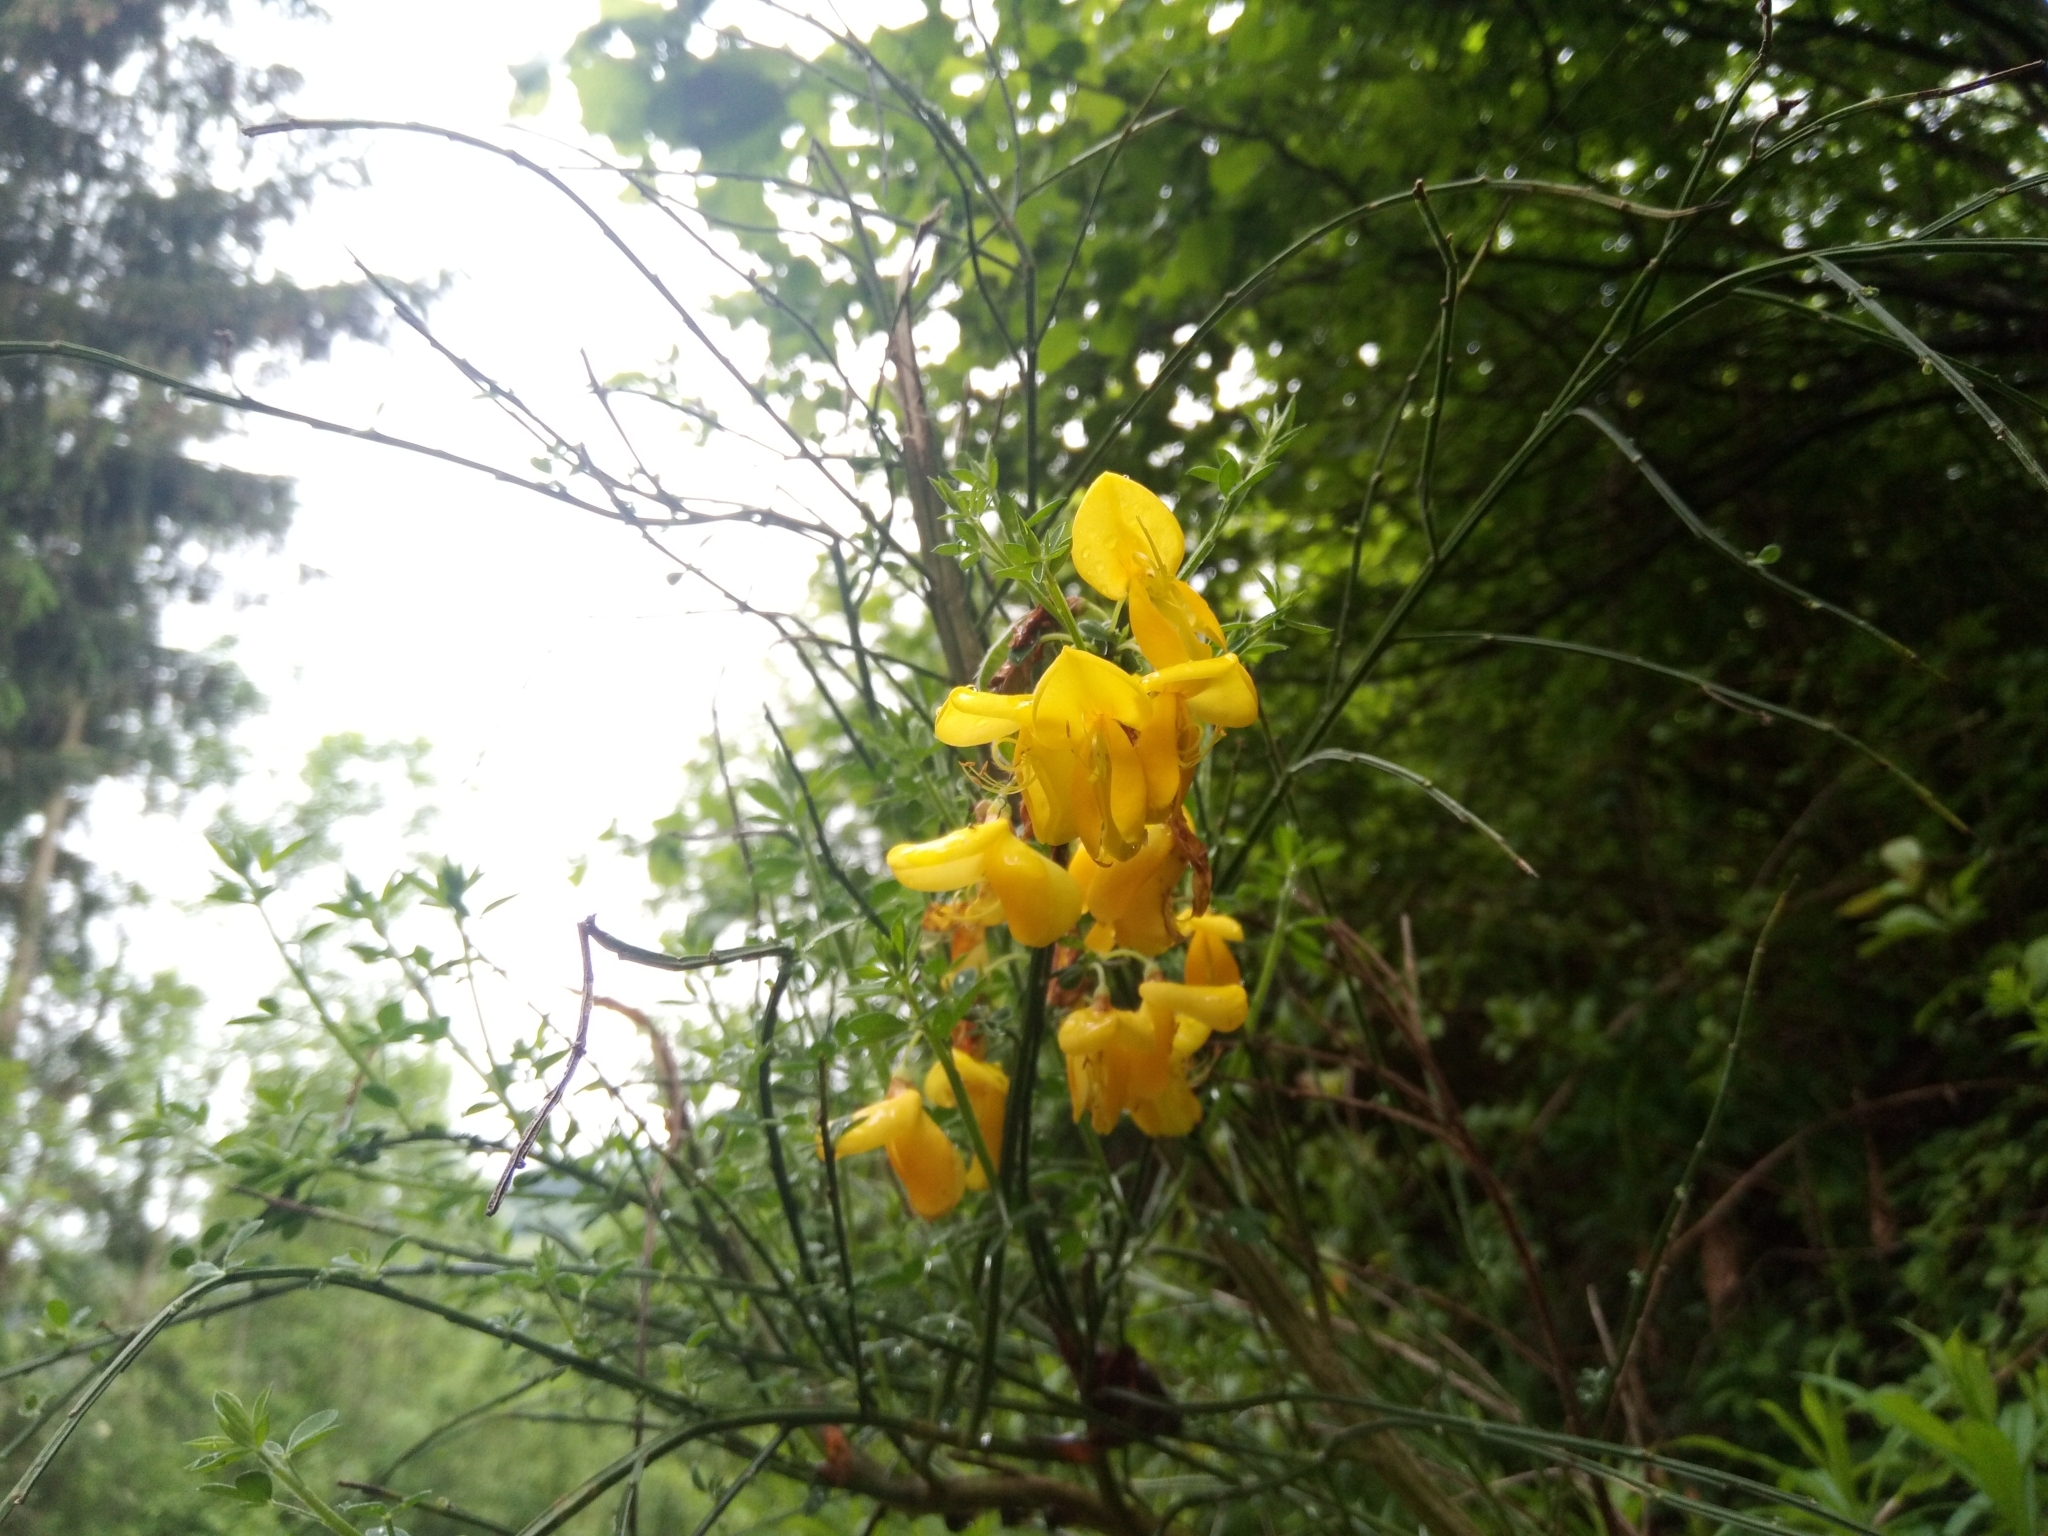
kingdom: Plantae
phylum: Tracheophyta
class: Magnoliopsida
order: Fabales
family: Fabaceae
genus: Cytisus
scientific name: Cytisus scoparius
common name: Scotch broom
